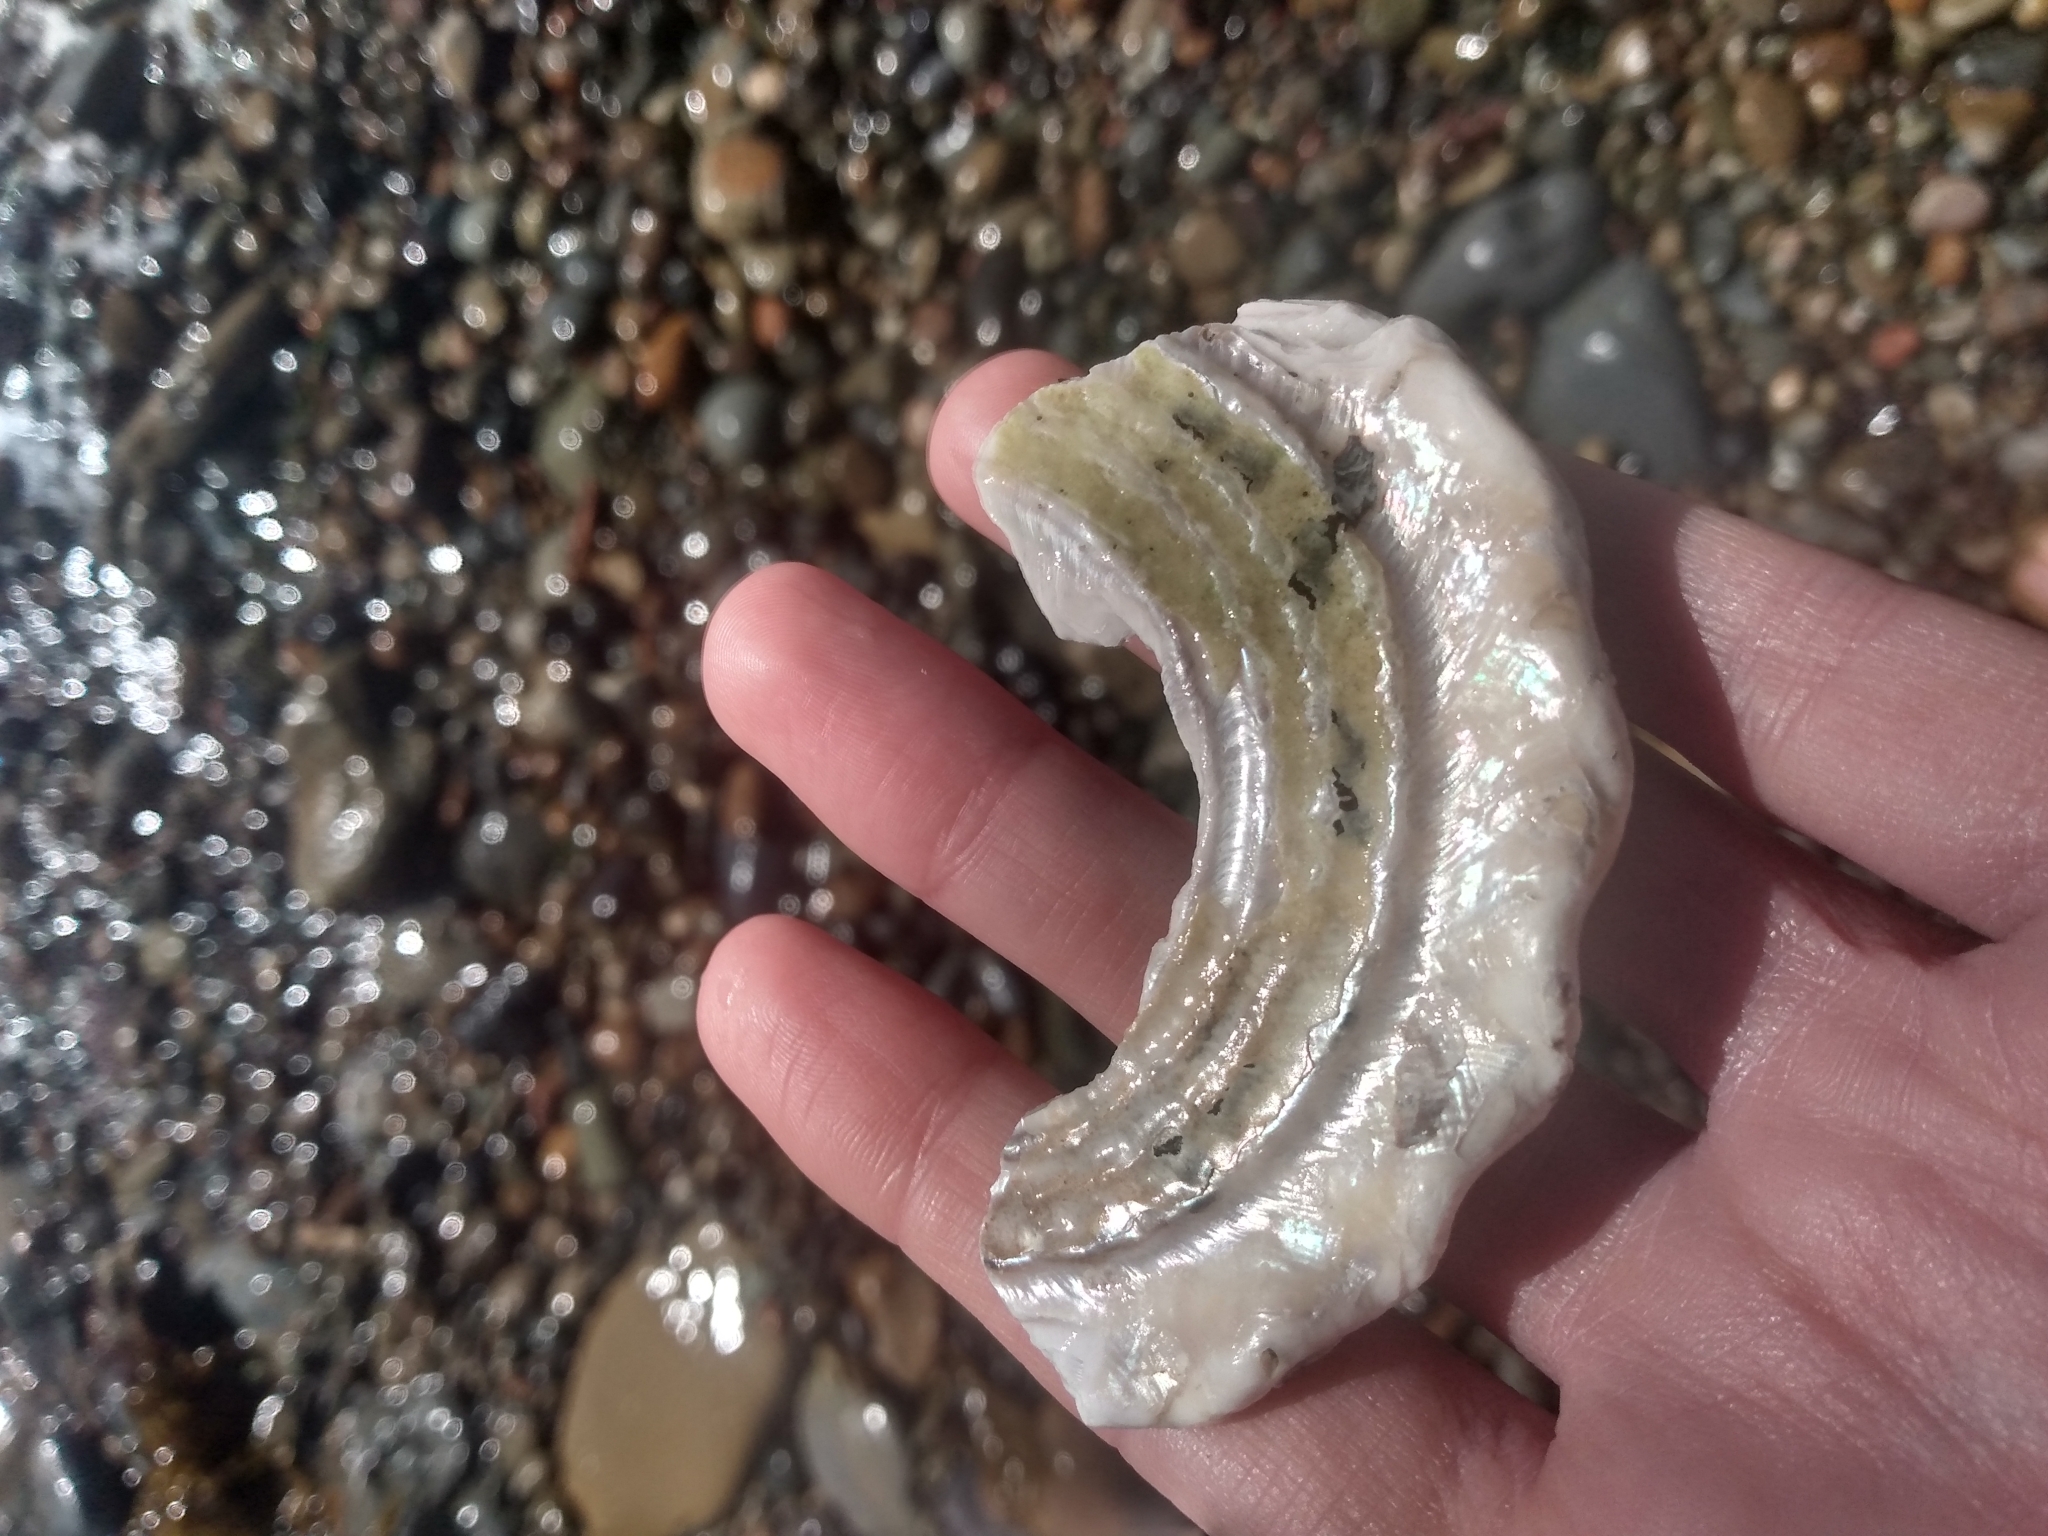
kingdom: Animalia
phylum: Mollusca
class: Gastropoda
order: Trochida
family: Turbinidae
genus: Megastraea
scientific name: Megastraea undosa
